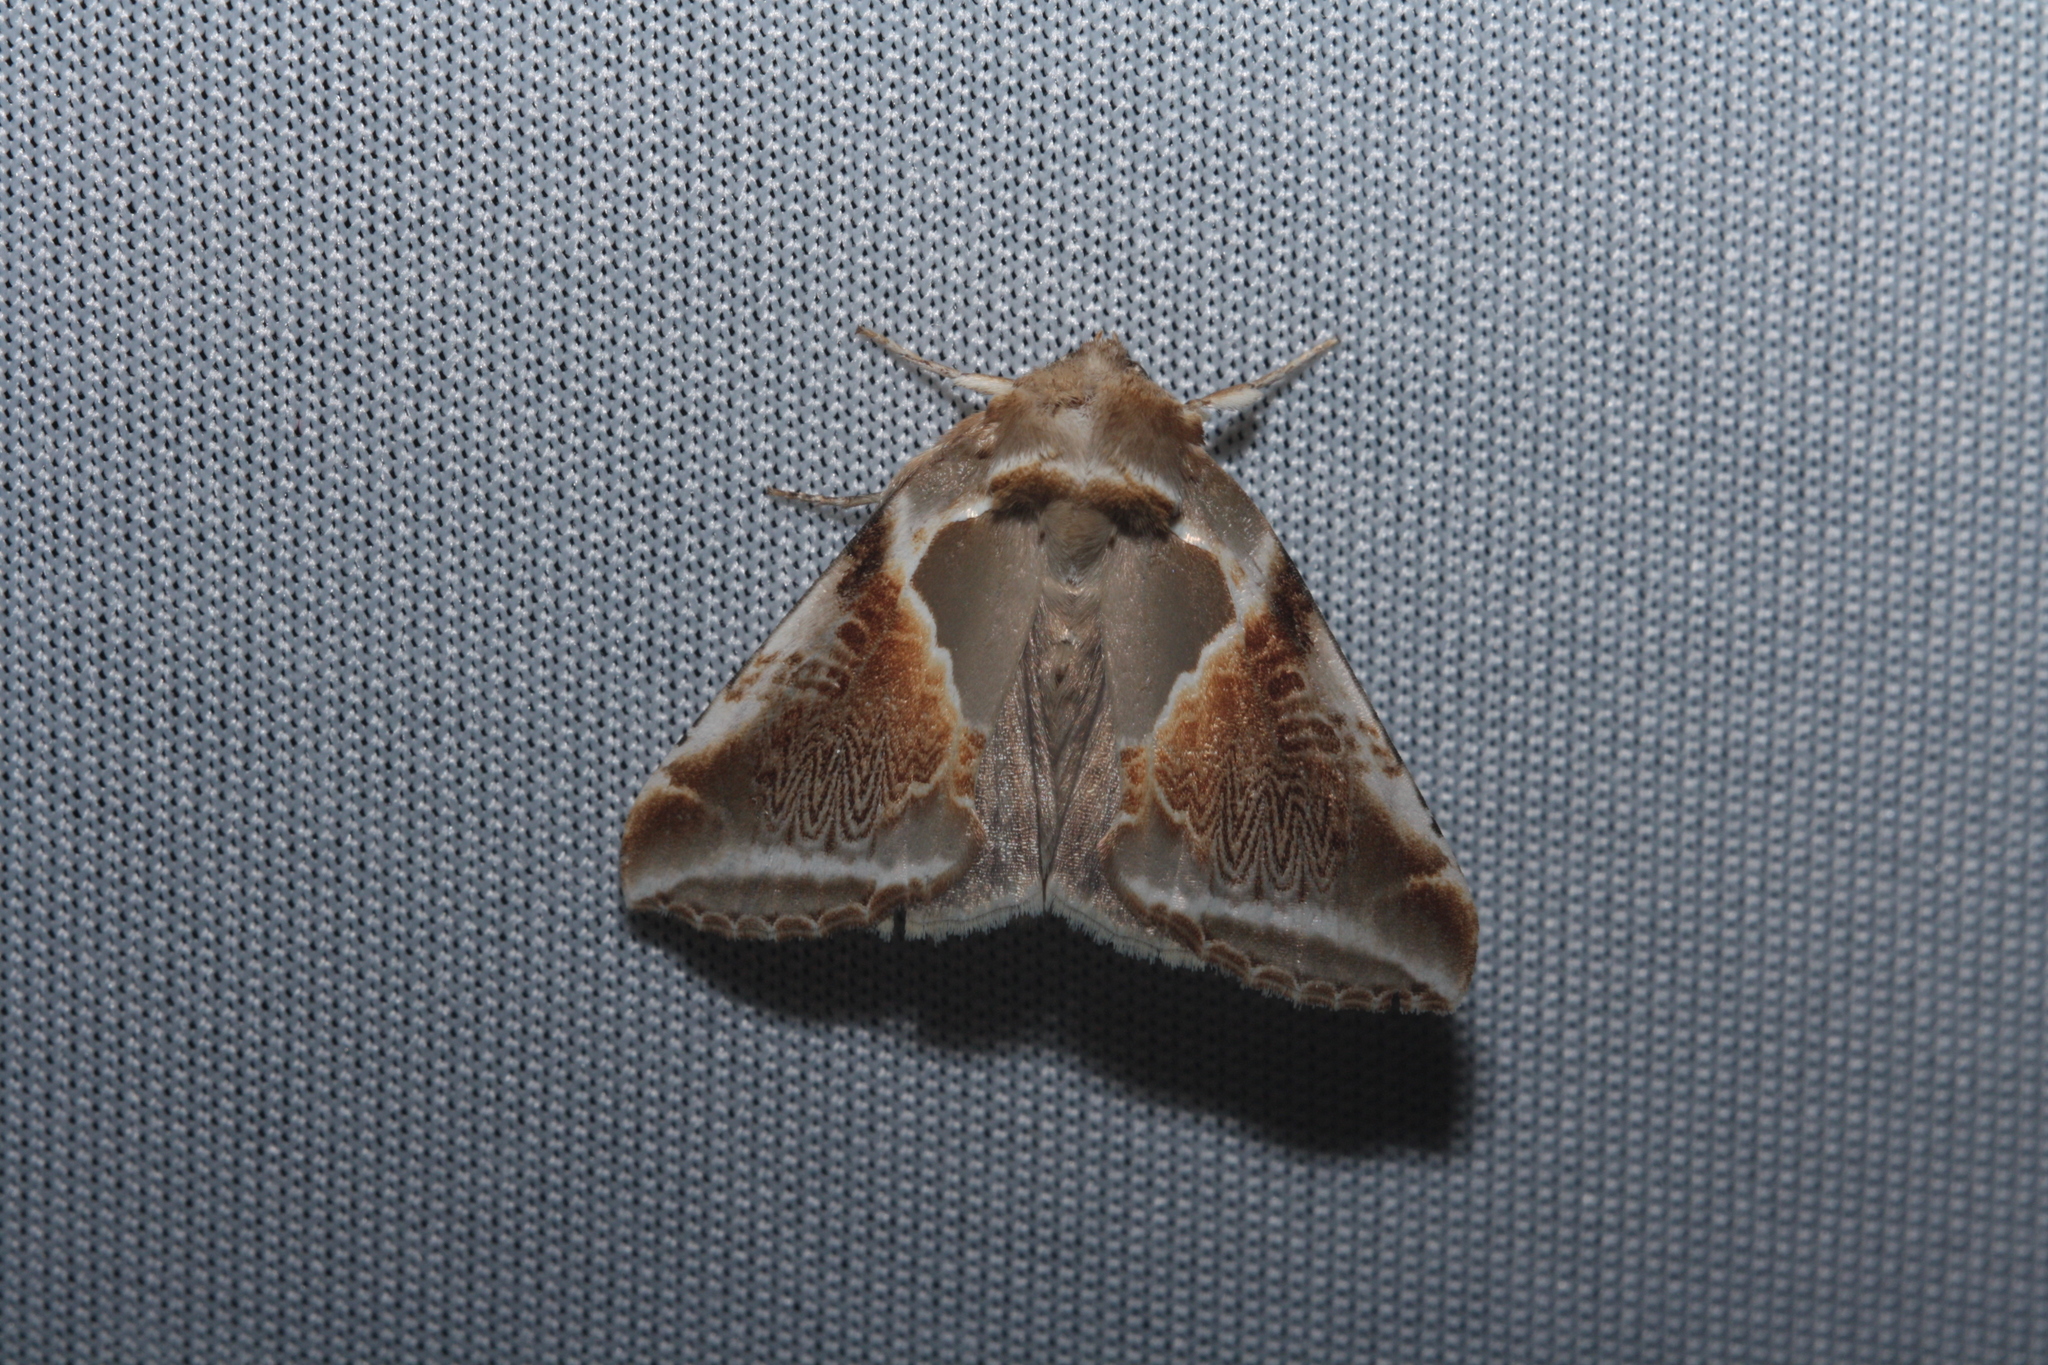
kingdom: Animalia
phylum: Arthropoda
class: Insecta
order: Lepidoptera
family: Drepanidae
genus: Habrosyne
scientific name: Habrosyne pyritoides
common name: Buff arches
